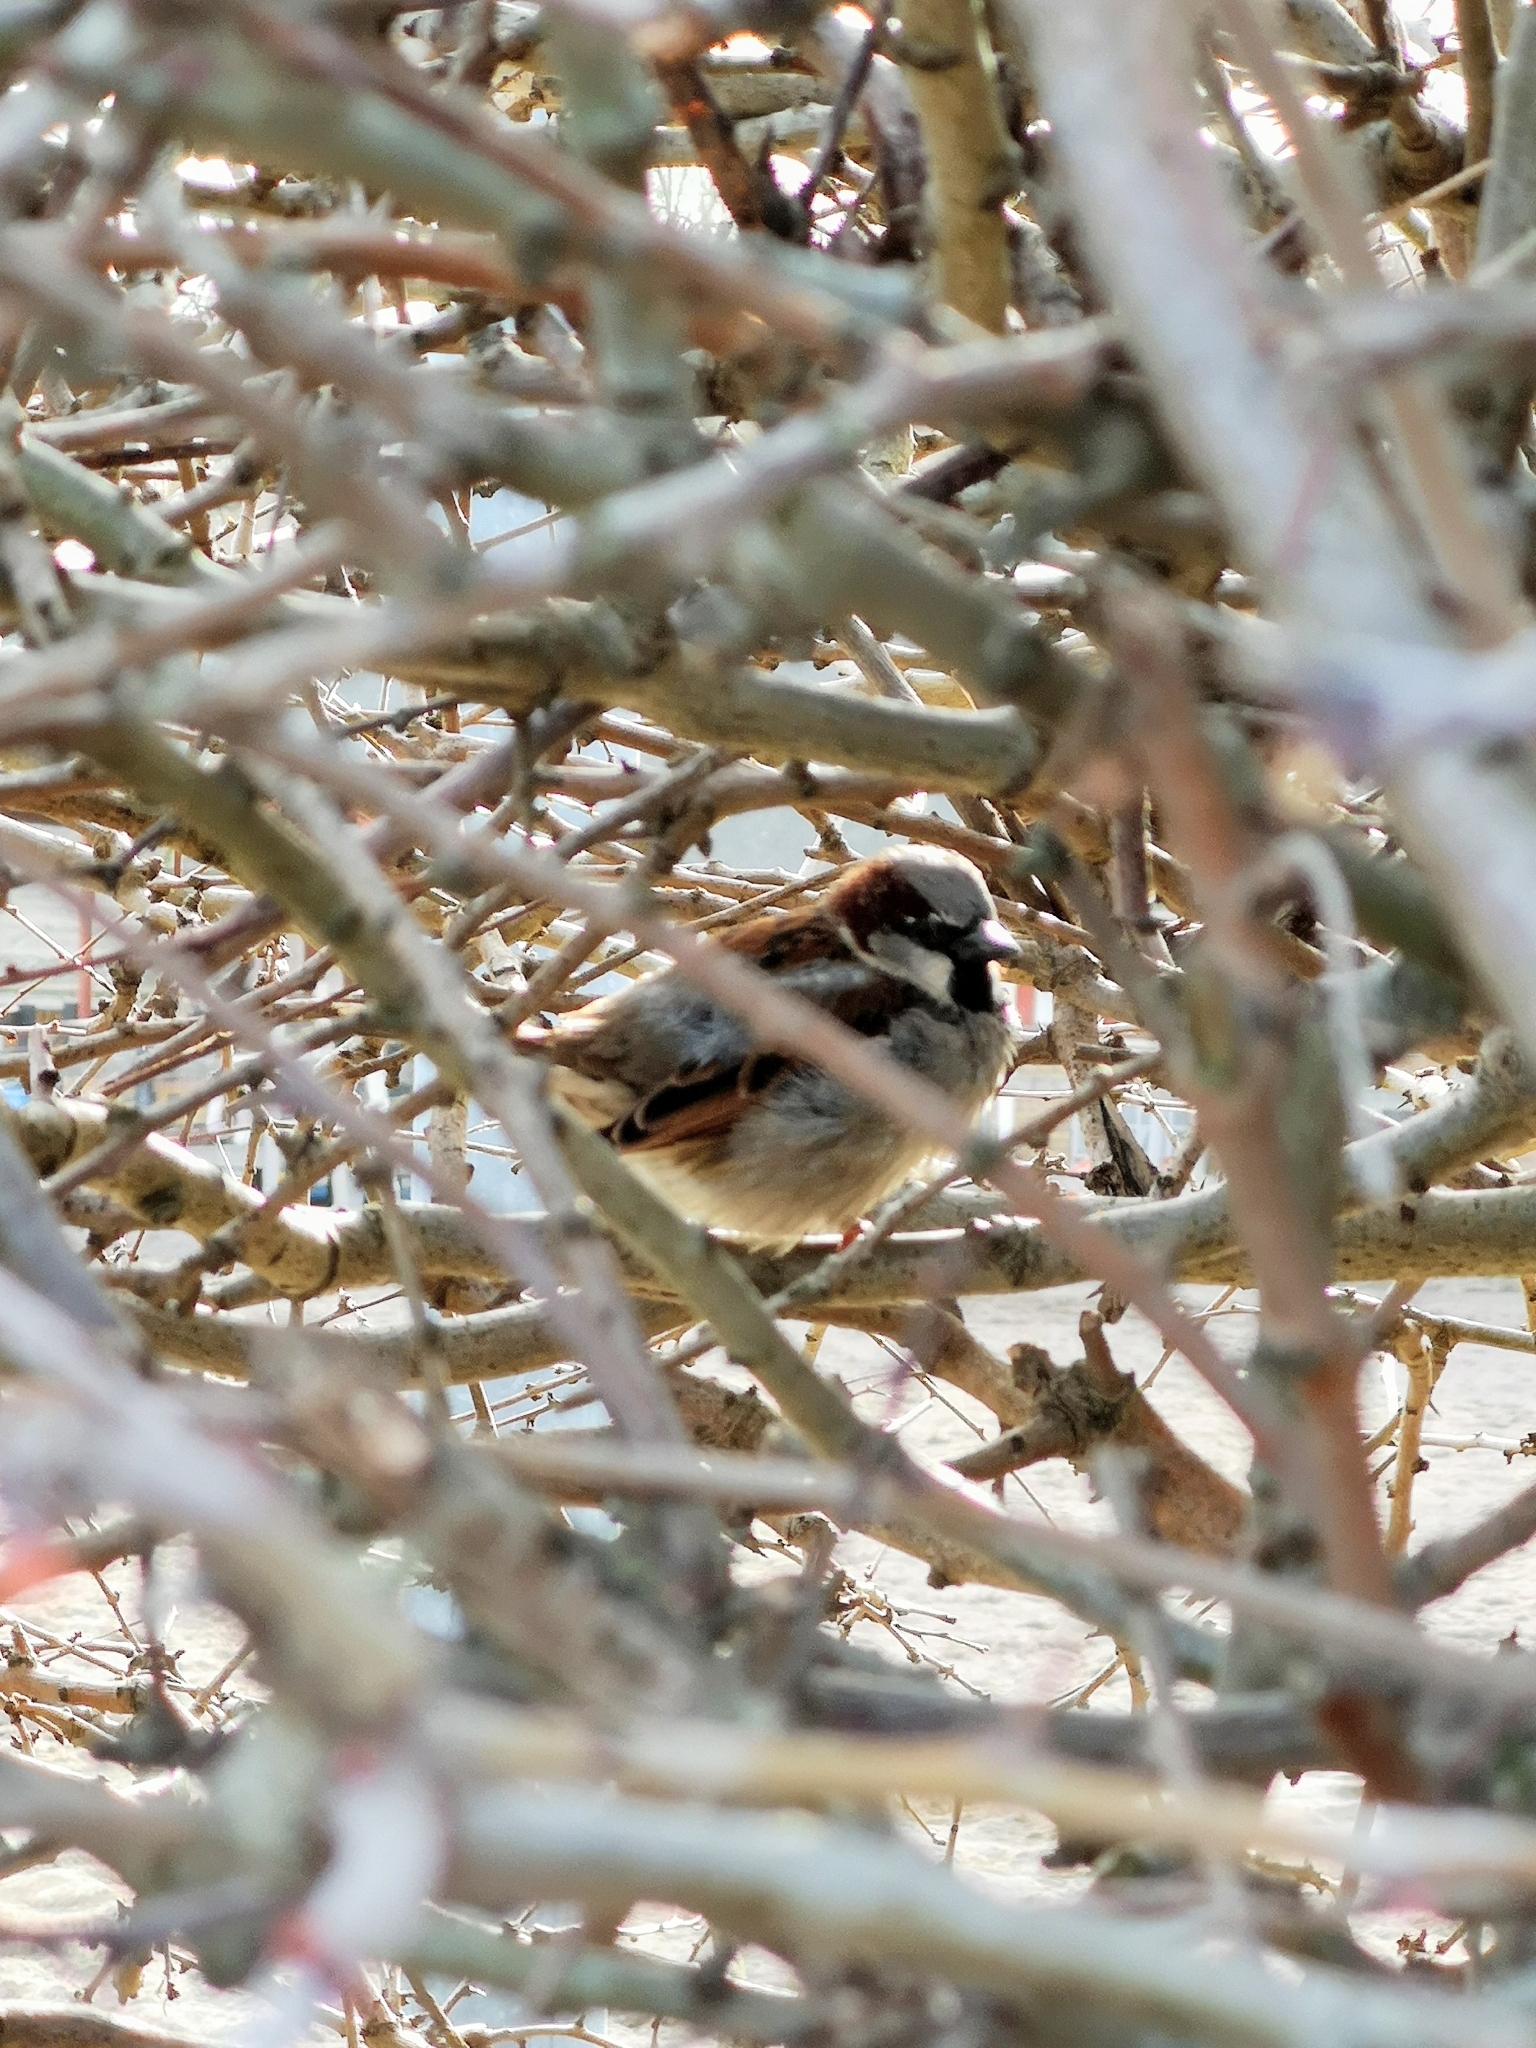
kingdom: Animalia
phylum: Chordata
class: Aves
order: Passeriformes
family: Passeridae
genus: Passer
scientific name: Passer domesticus
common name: House sparrow
